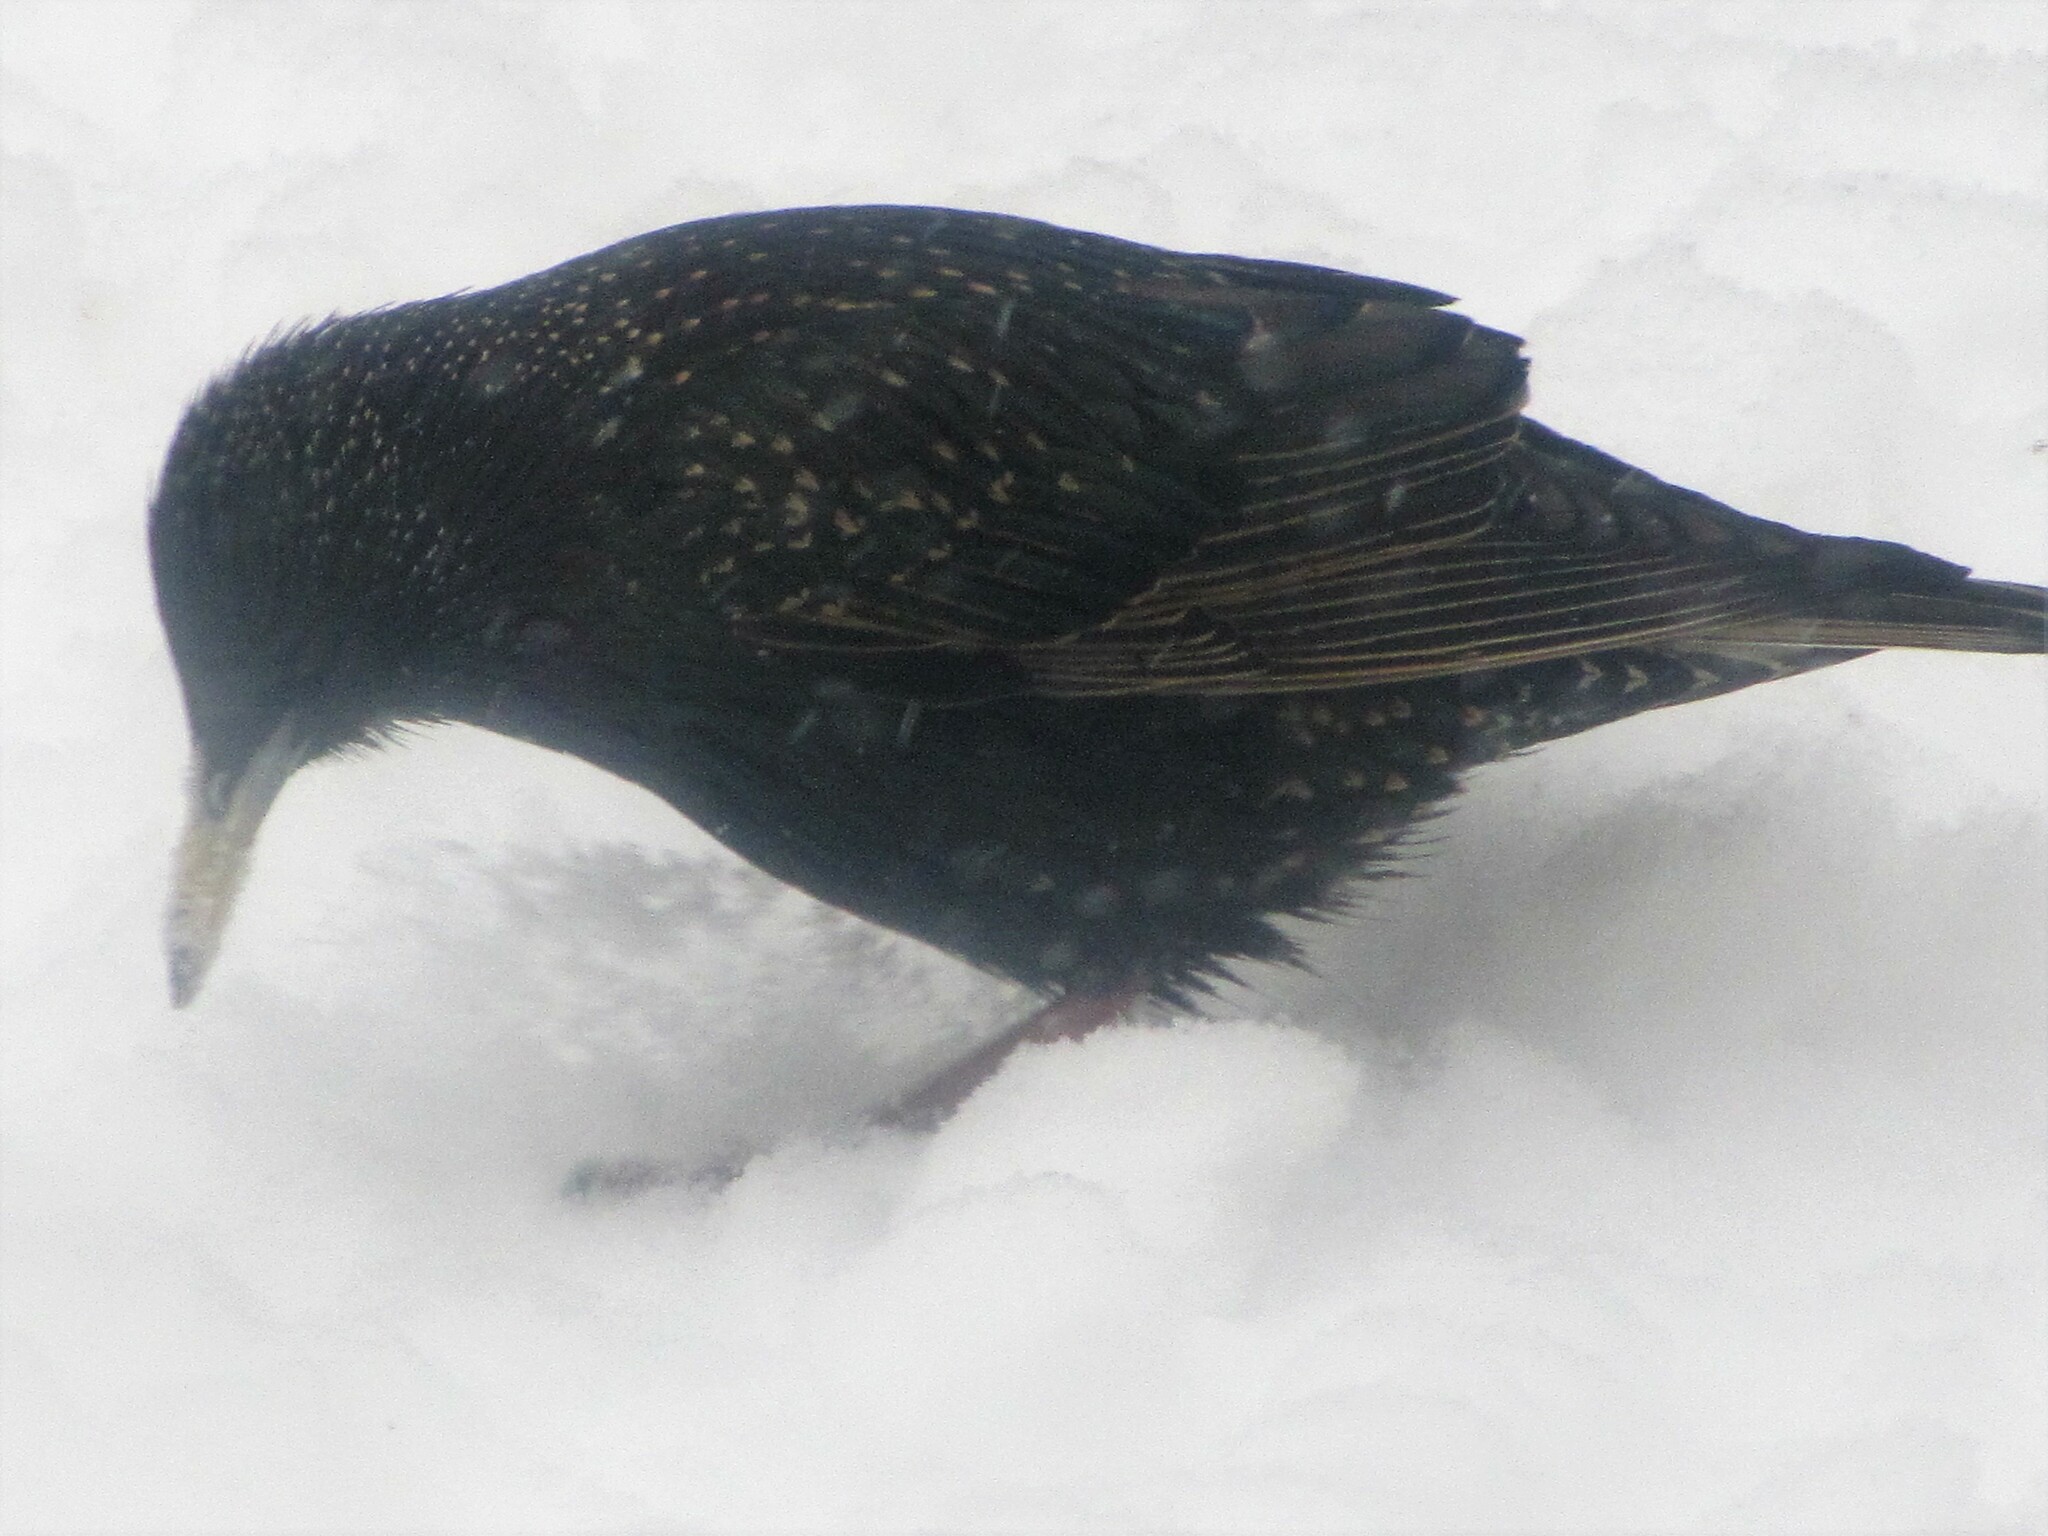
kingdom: Animalia
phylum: Chordata
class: Aves
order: Passeriformes
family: Sturnidae
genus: Sturnus
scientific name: Sturnus vulgaris
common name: Common starling
